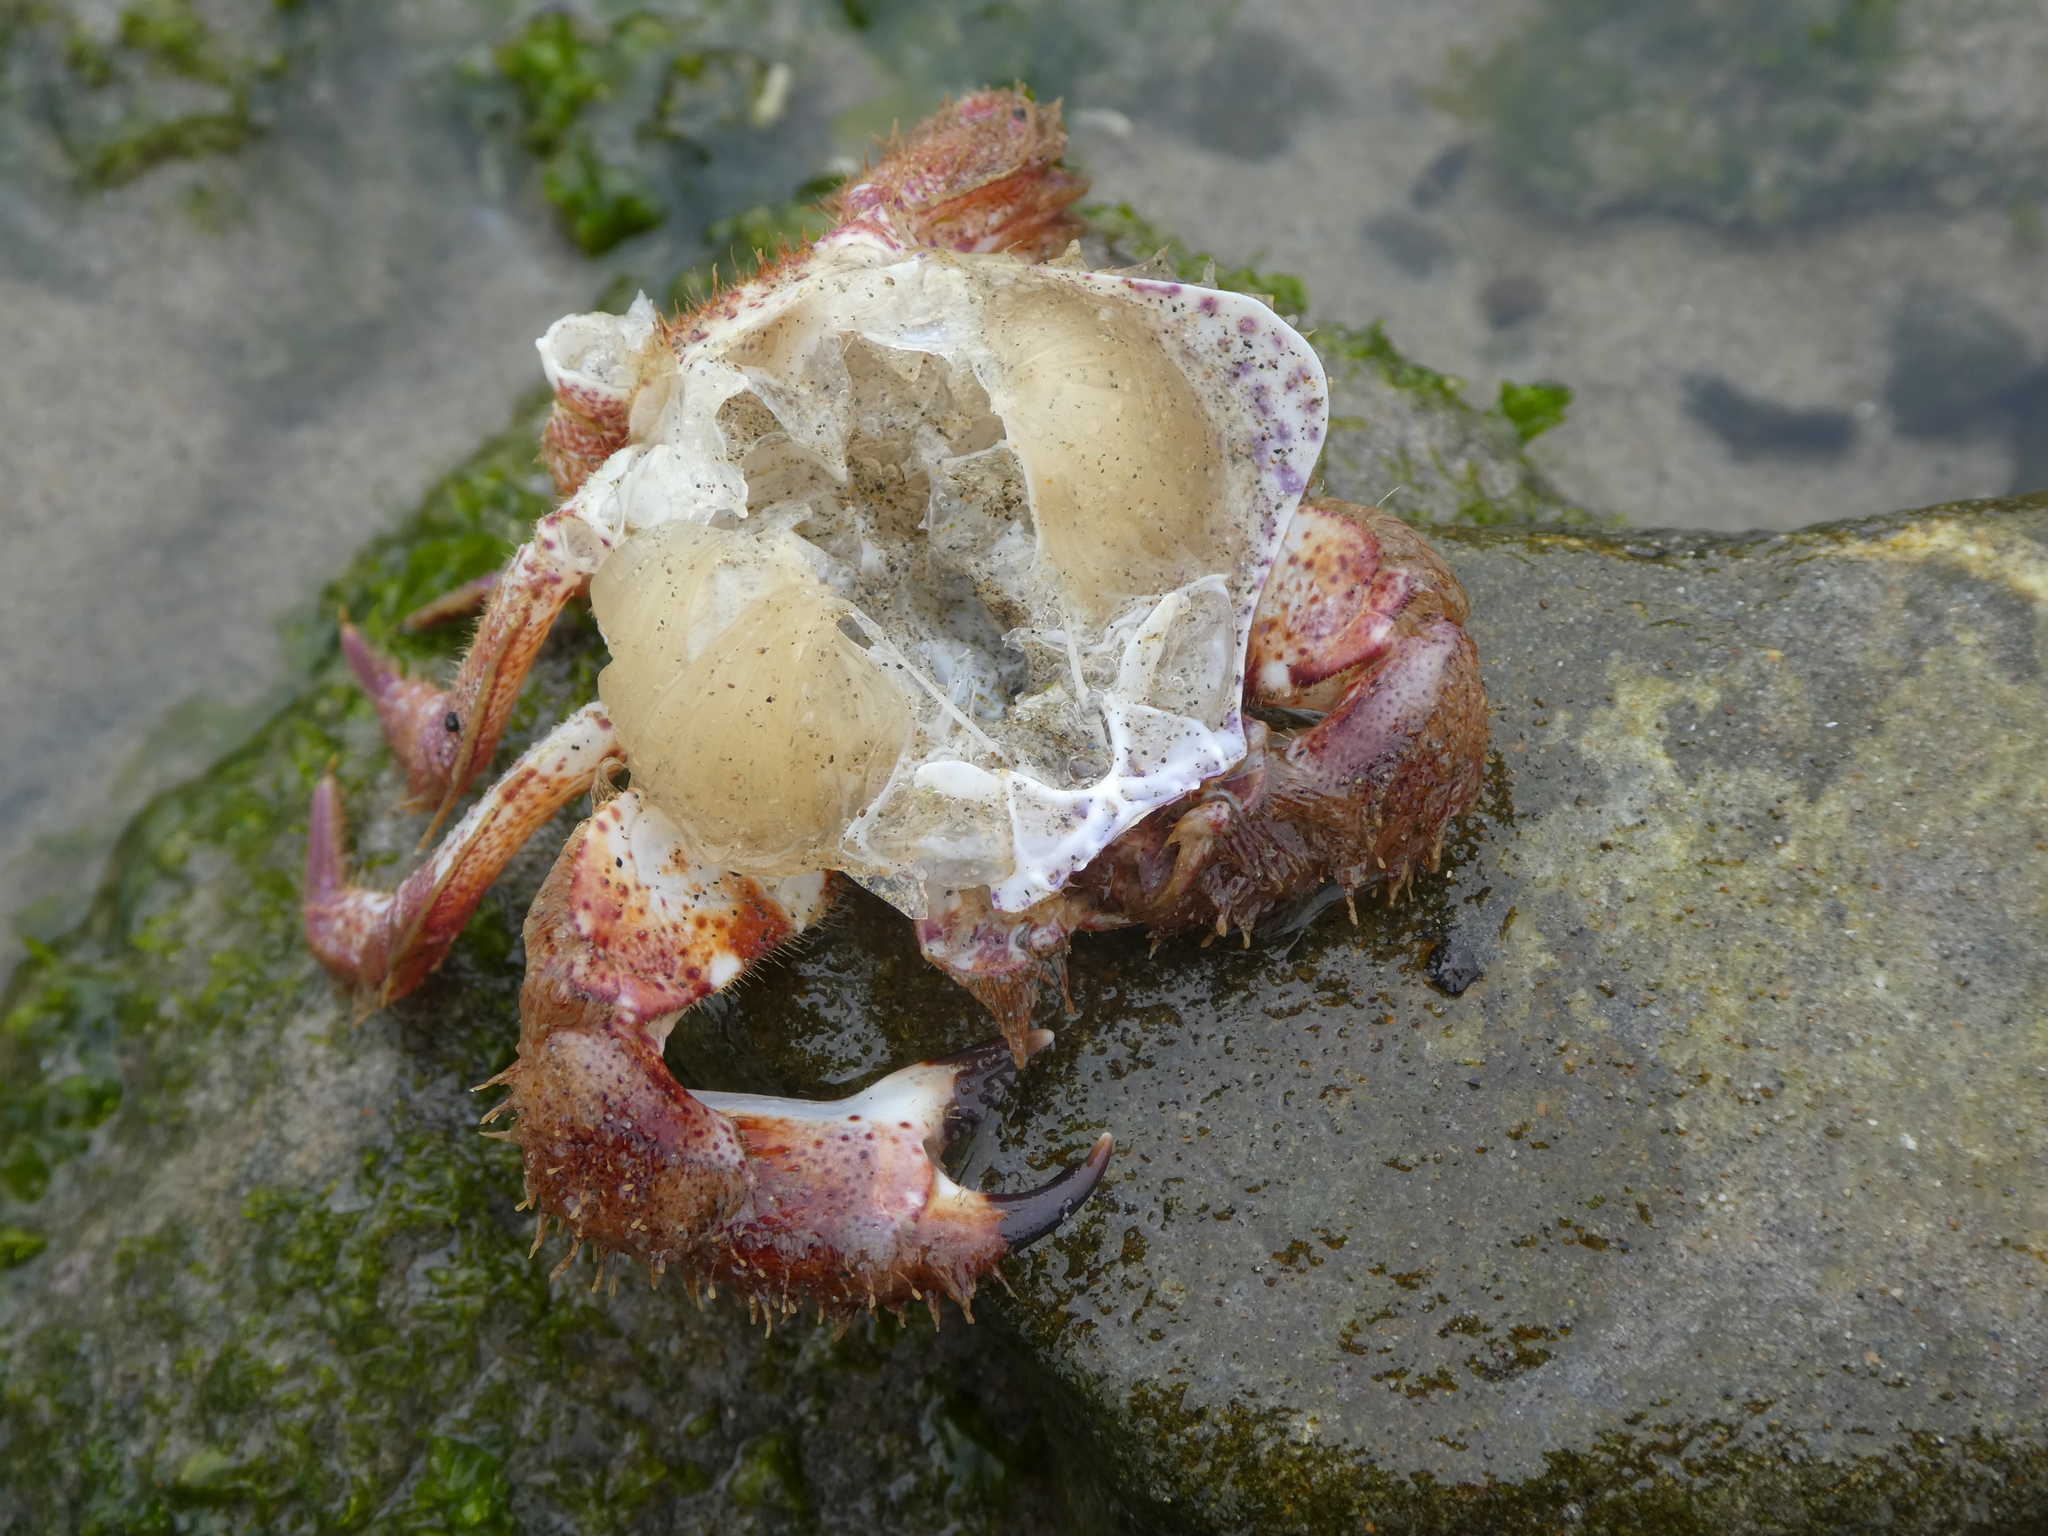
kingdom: Animalia
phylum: Arthropoda
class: Malacostraca
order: Decapoda
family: Cancridae
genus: Romaleon
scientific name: Romaleon antennarium
